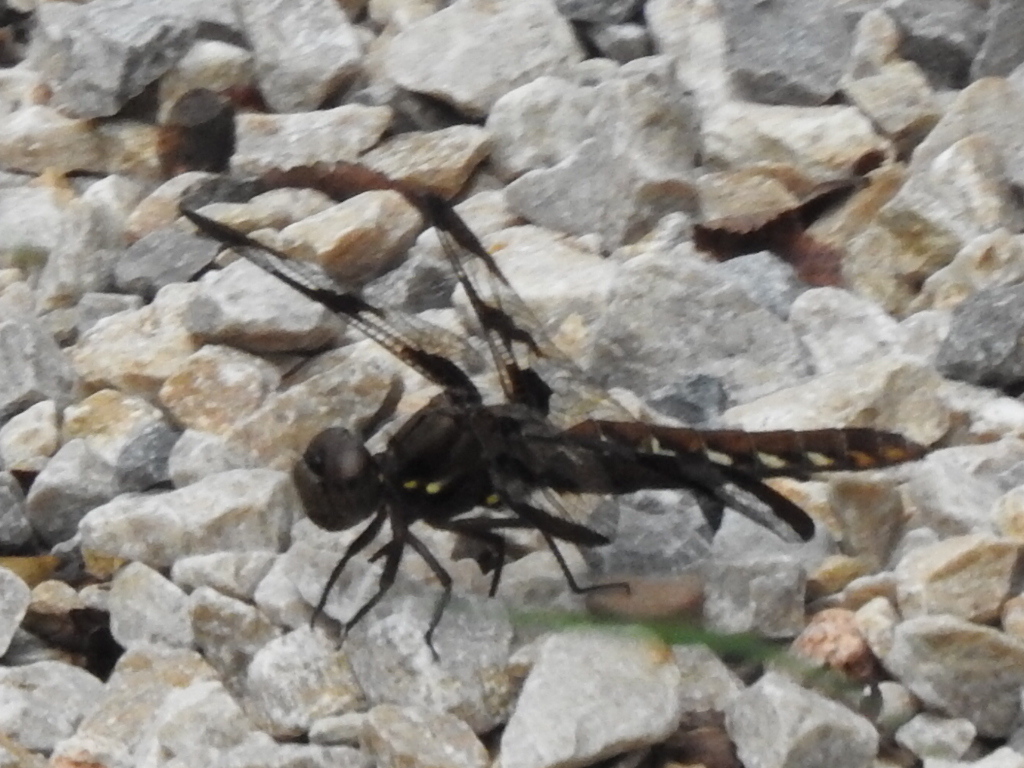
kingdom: Animalia
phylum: Arthropoda
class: Insecta
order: Odonata
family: Libellulidae
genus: Plathemis
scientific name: Plathemis lydia
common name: Common whitetail
